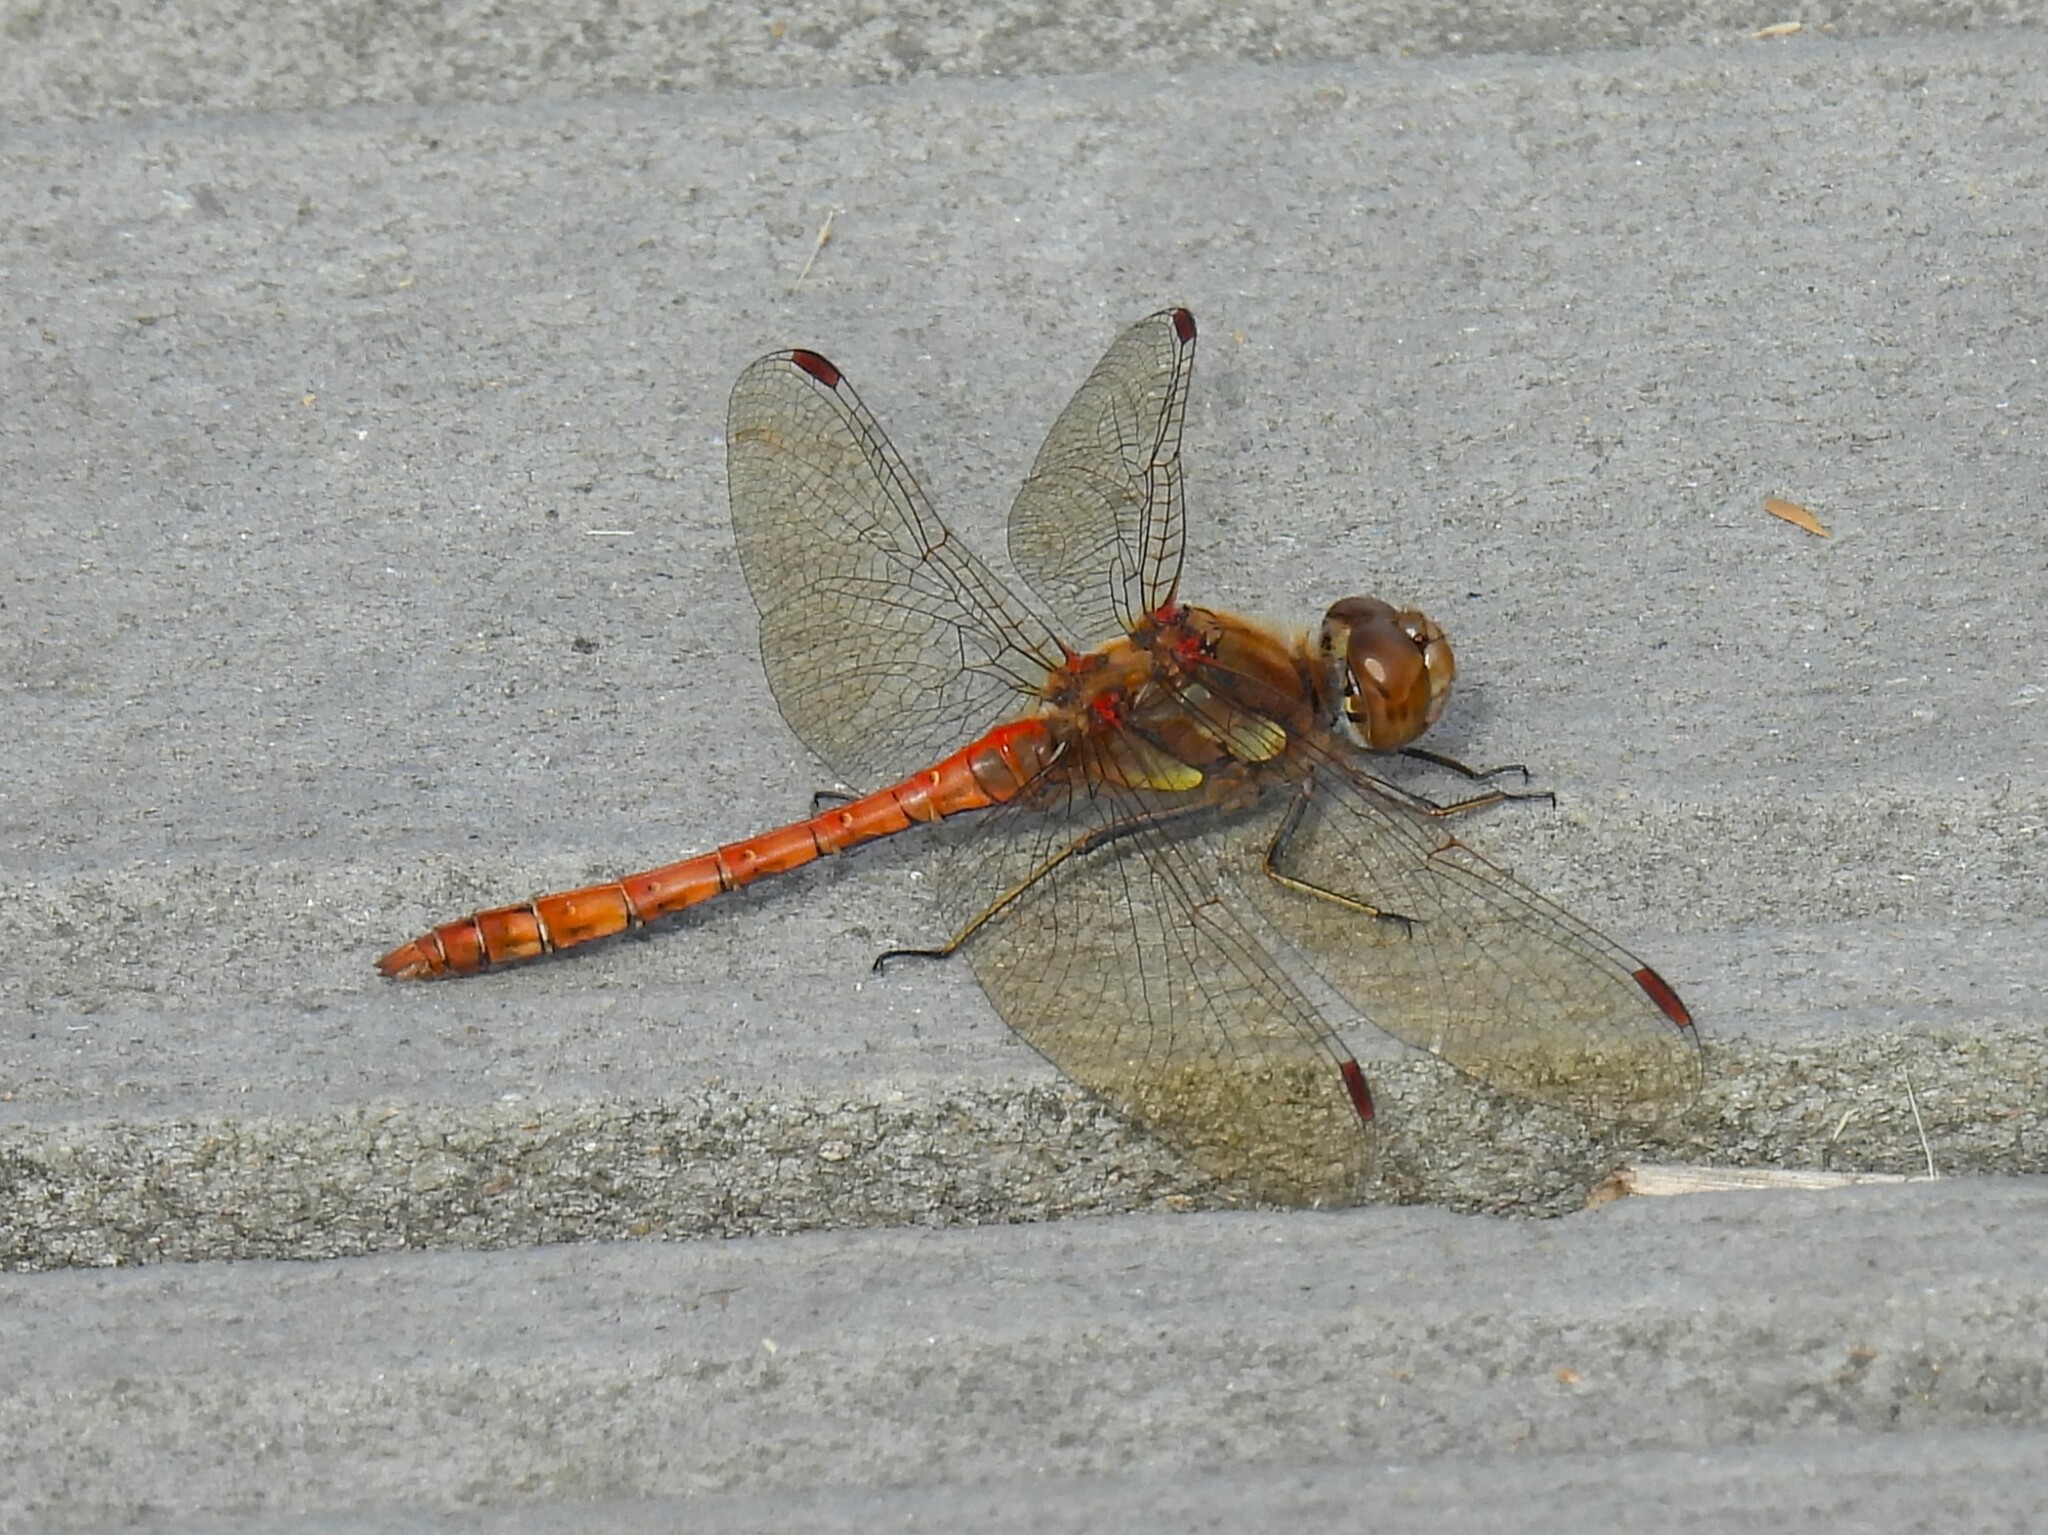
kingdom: Animalia
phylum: Arthropoda
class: Insecta
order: Odonata
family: Libellulidae
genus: Sympetrum
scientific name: Sympetrum striolatum
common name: Common darter
